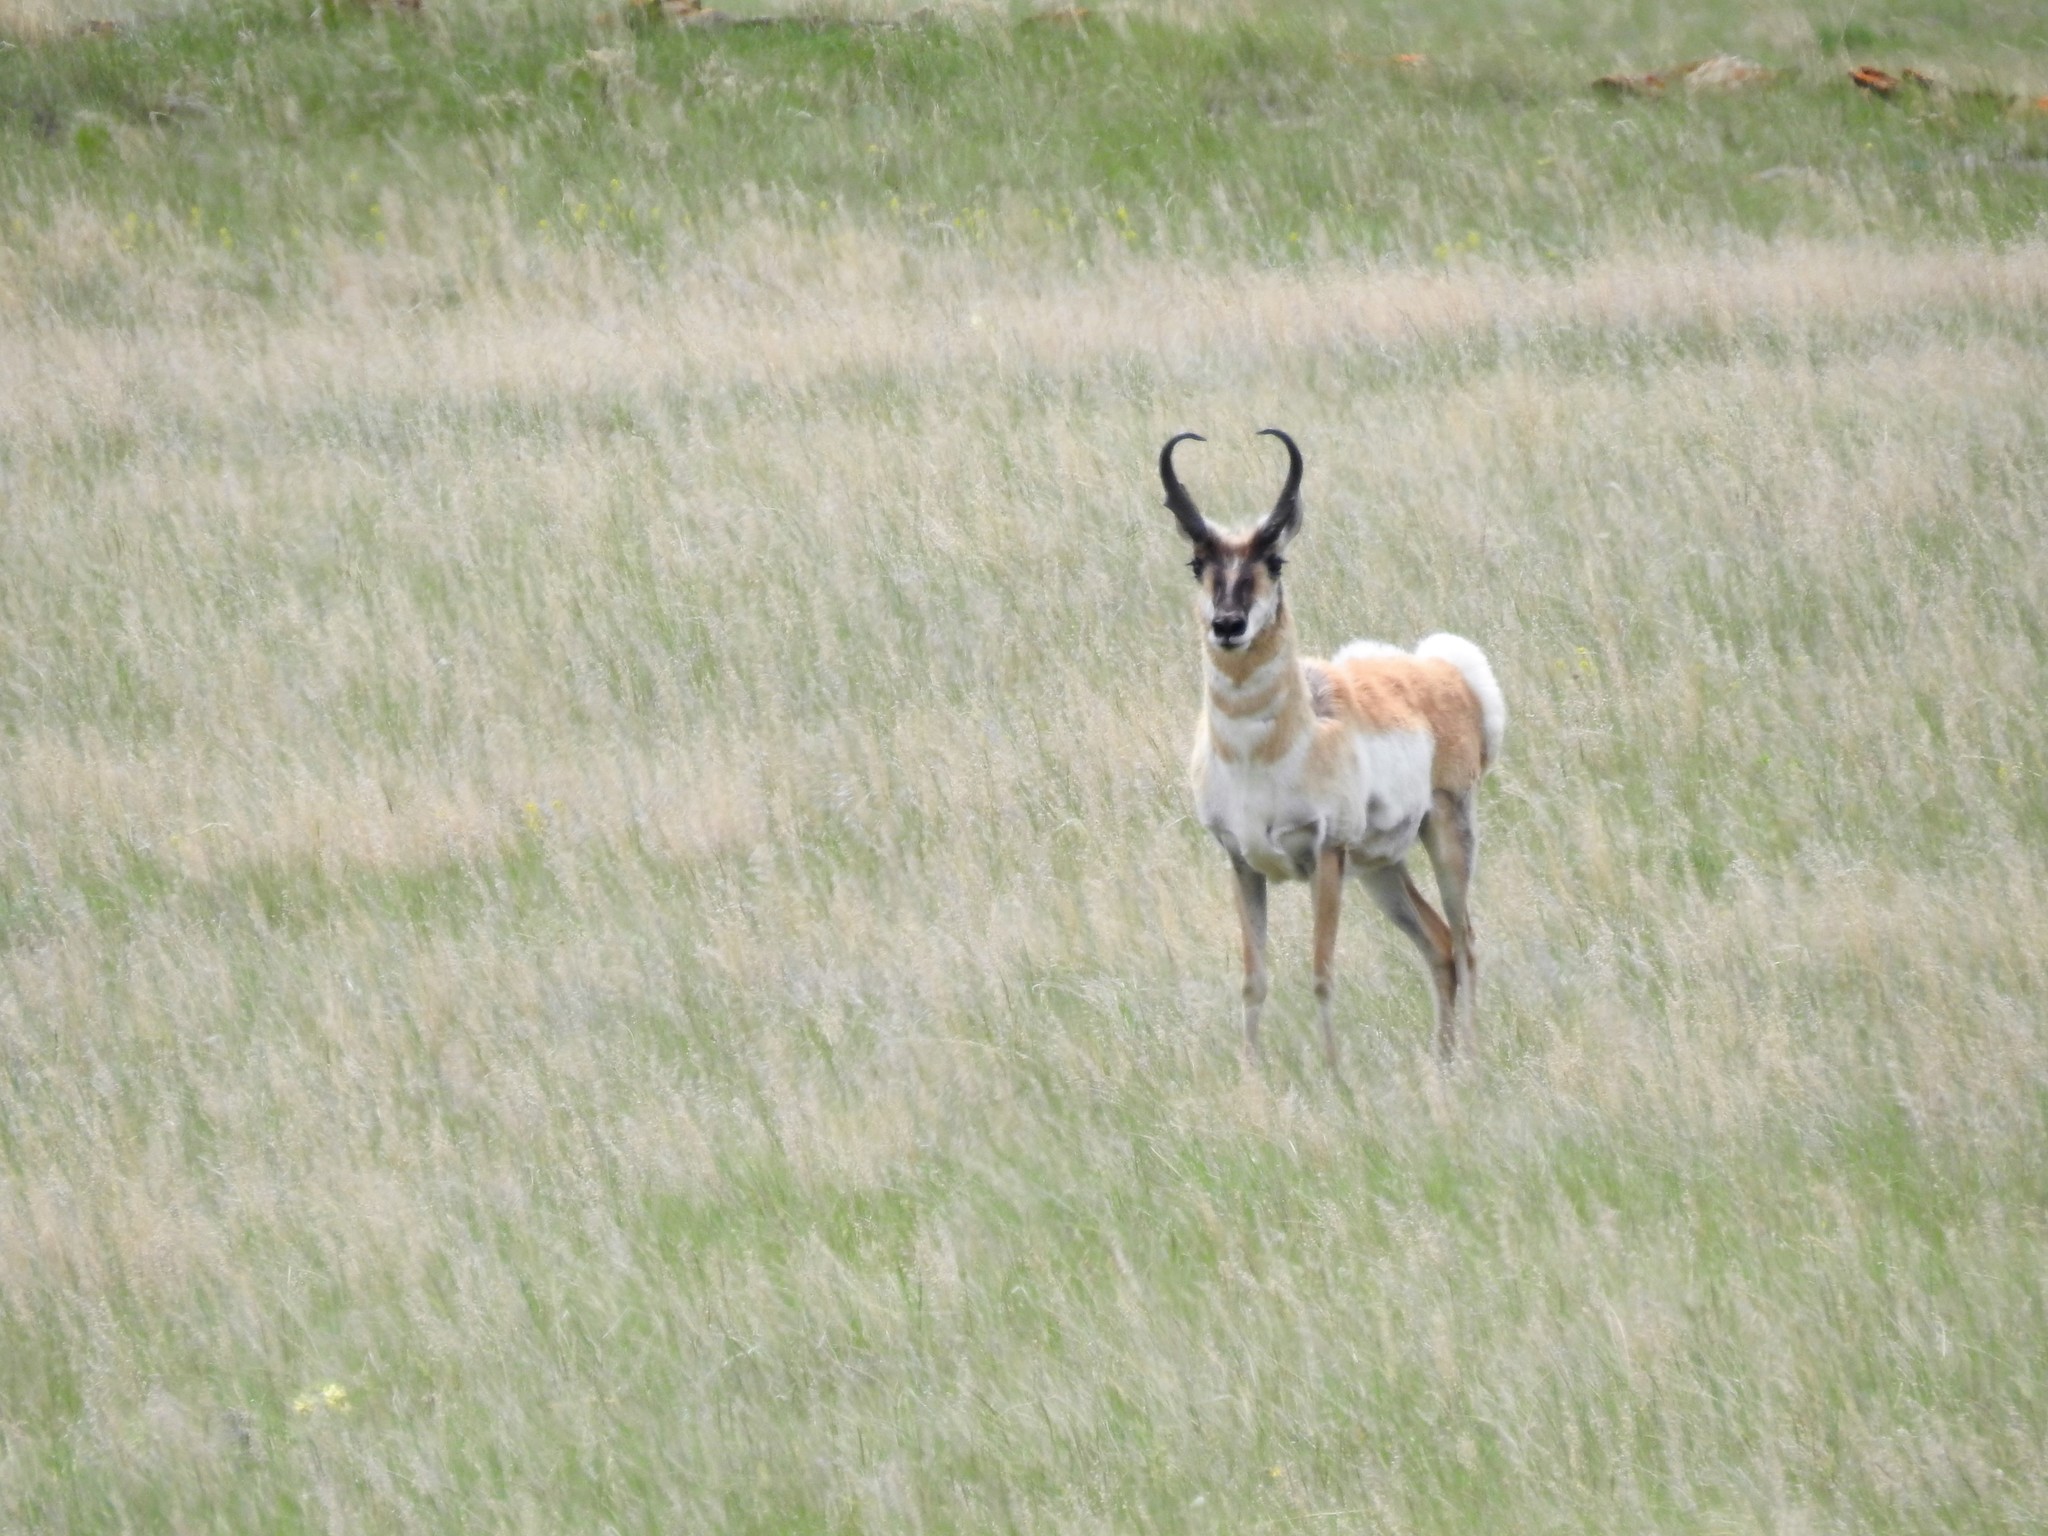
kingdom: Animalia
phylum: Chordata
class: Mammalia
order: Artiodactyla
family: Antilocapridae
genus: Antilocapra
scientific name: Antilocapra americana
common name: Pronghorn
